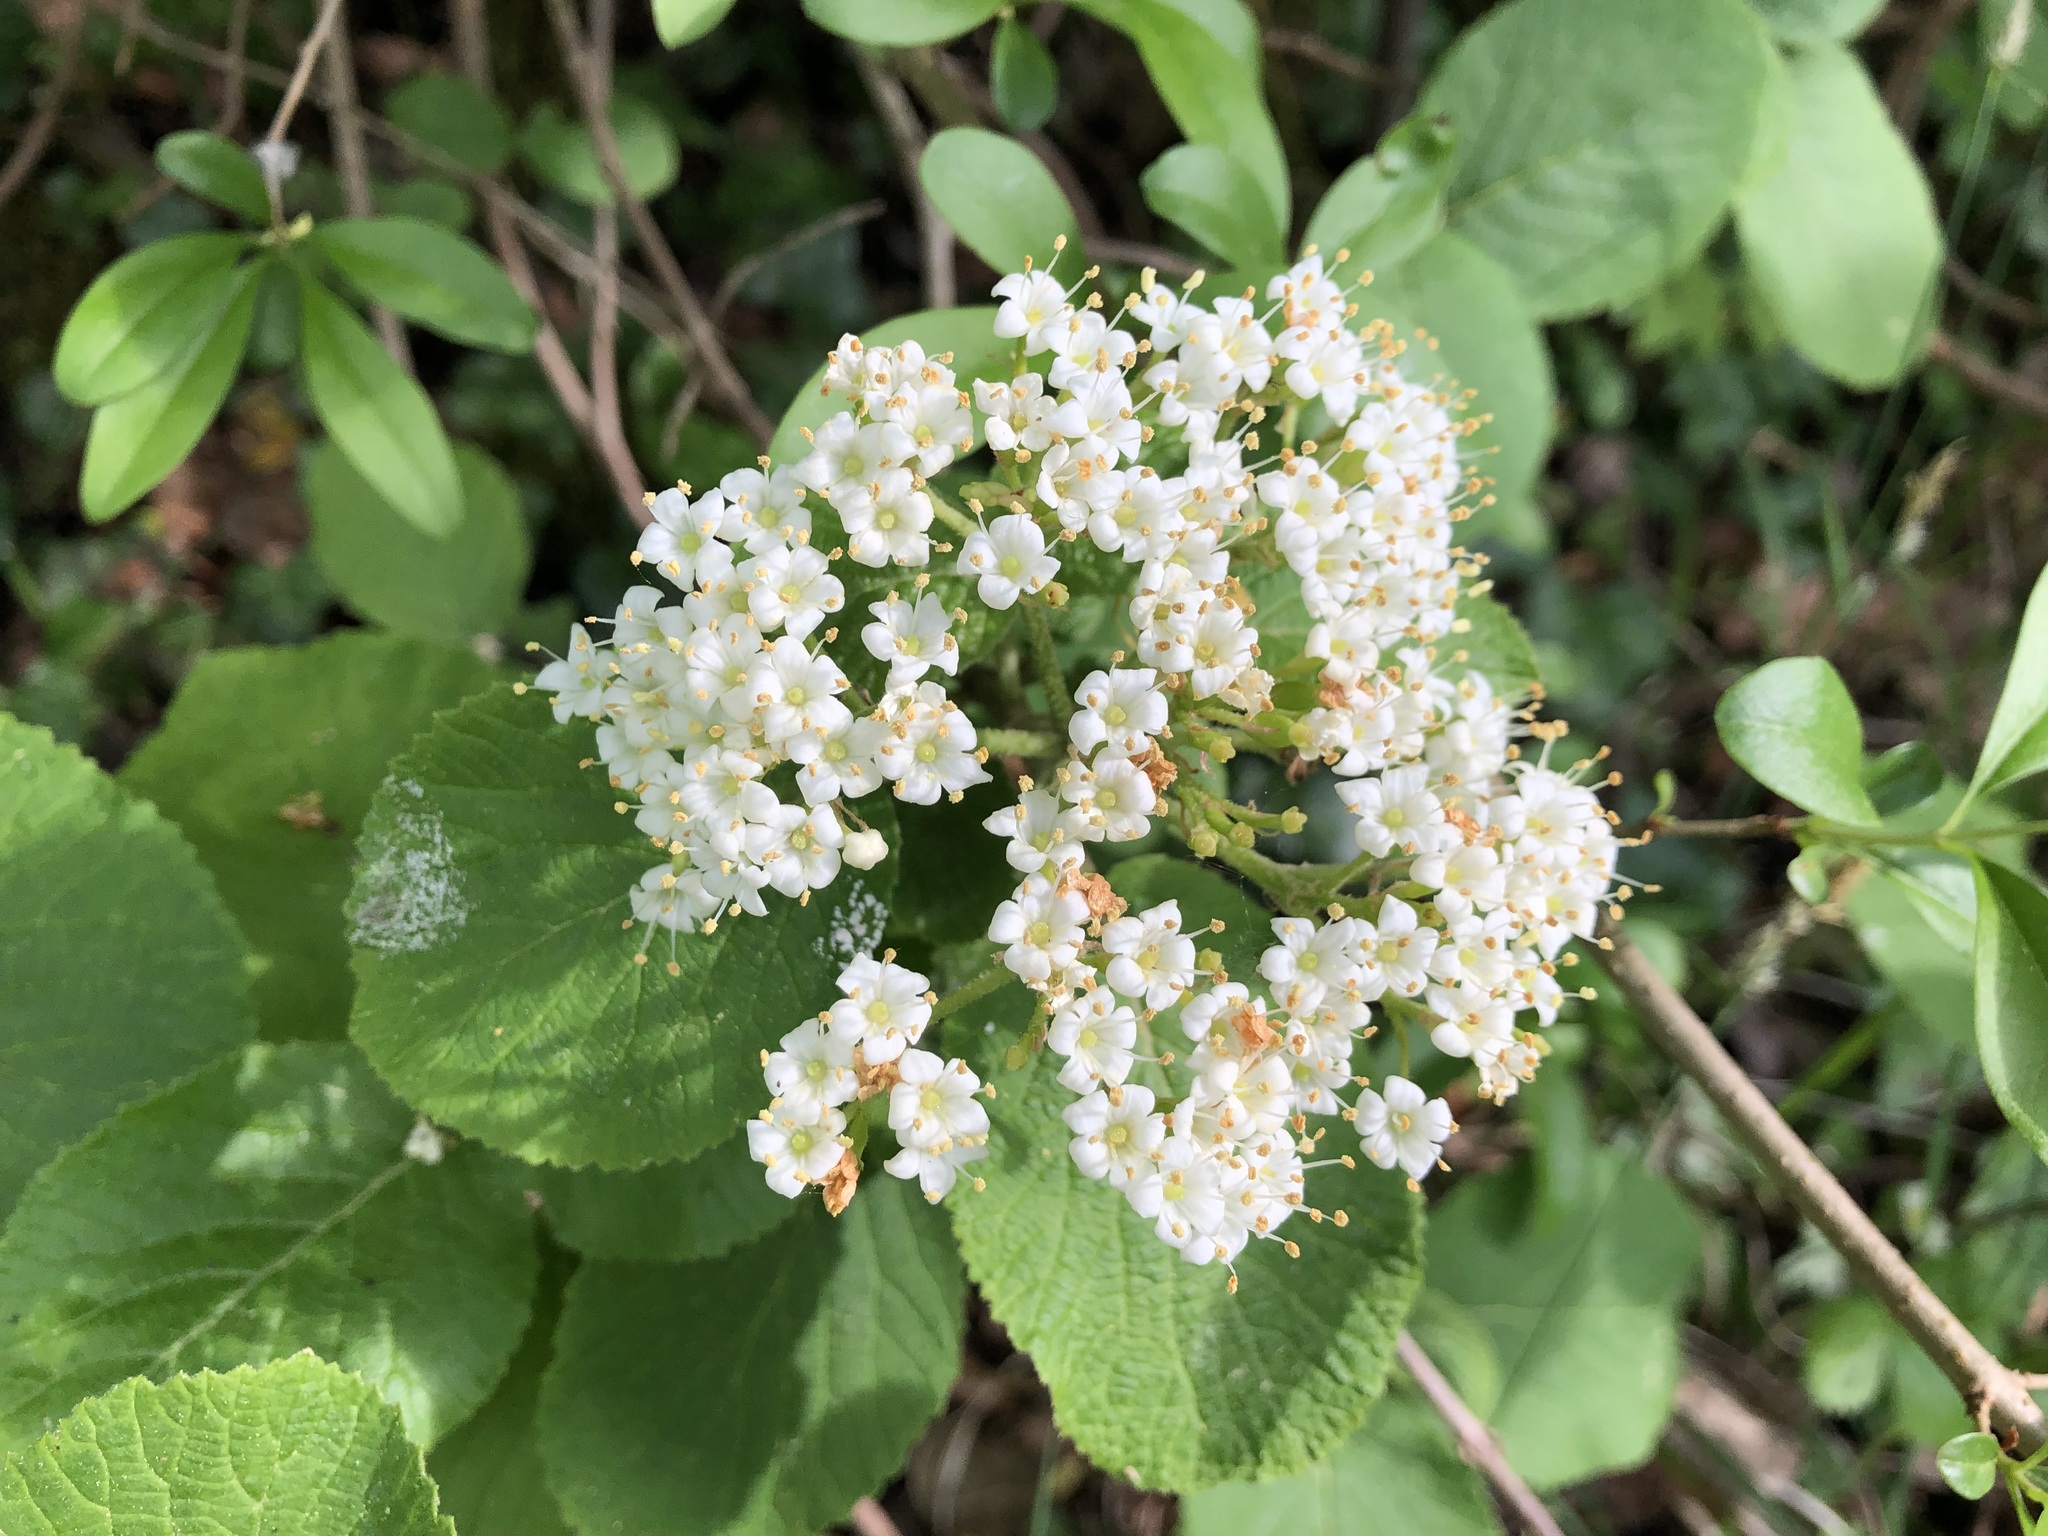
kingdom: Plantae
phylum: Tracheophyta
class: Magnoliopsida
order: Dipsacales
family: Viburnaceae
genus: Viburnum
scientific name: Viburnum lantana
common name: Wayfaring tree
